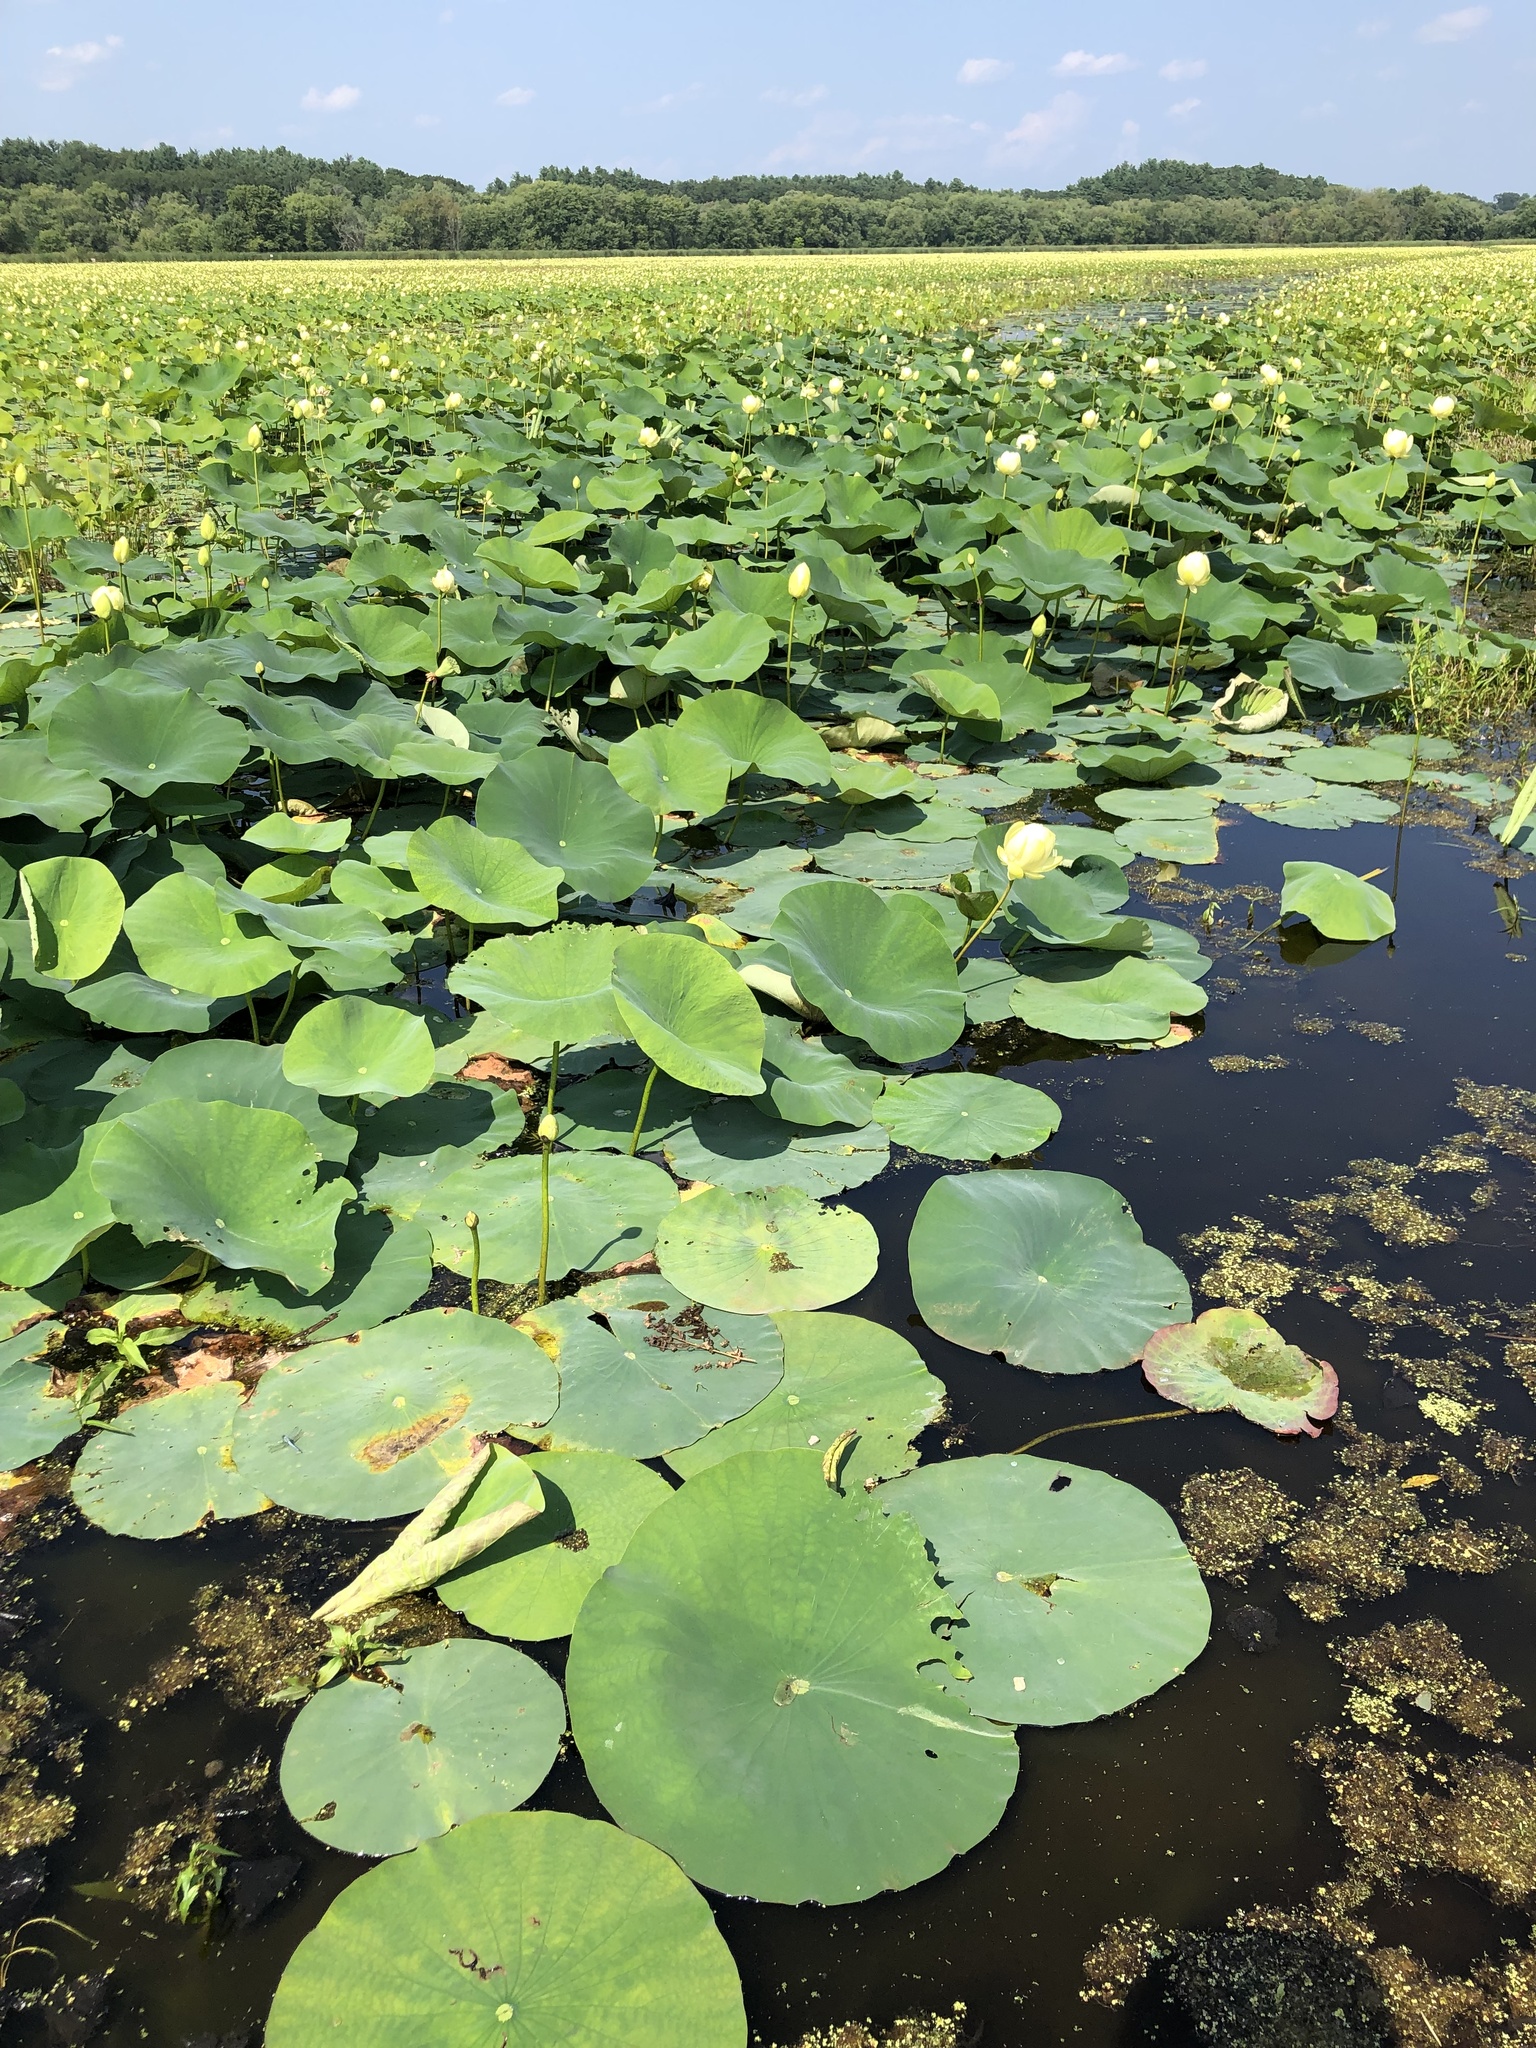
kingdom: Plantae
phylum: Tracheophyta
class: Magnoliopsida
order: Proteales
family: Nelumbonaceae
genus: Nelumbo
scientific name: Nelumbo lutea
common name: American lotus
